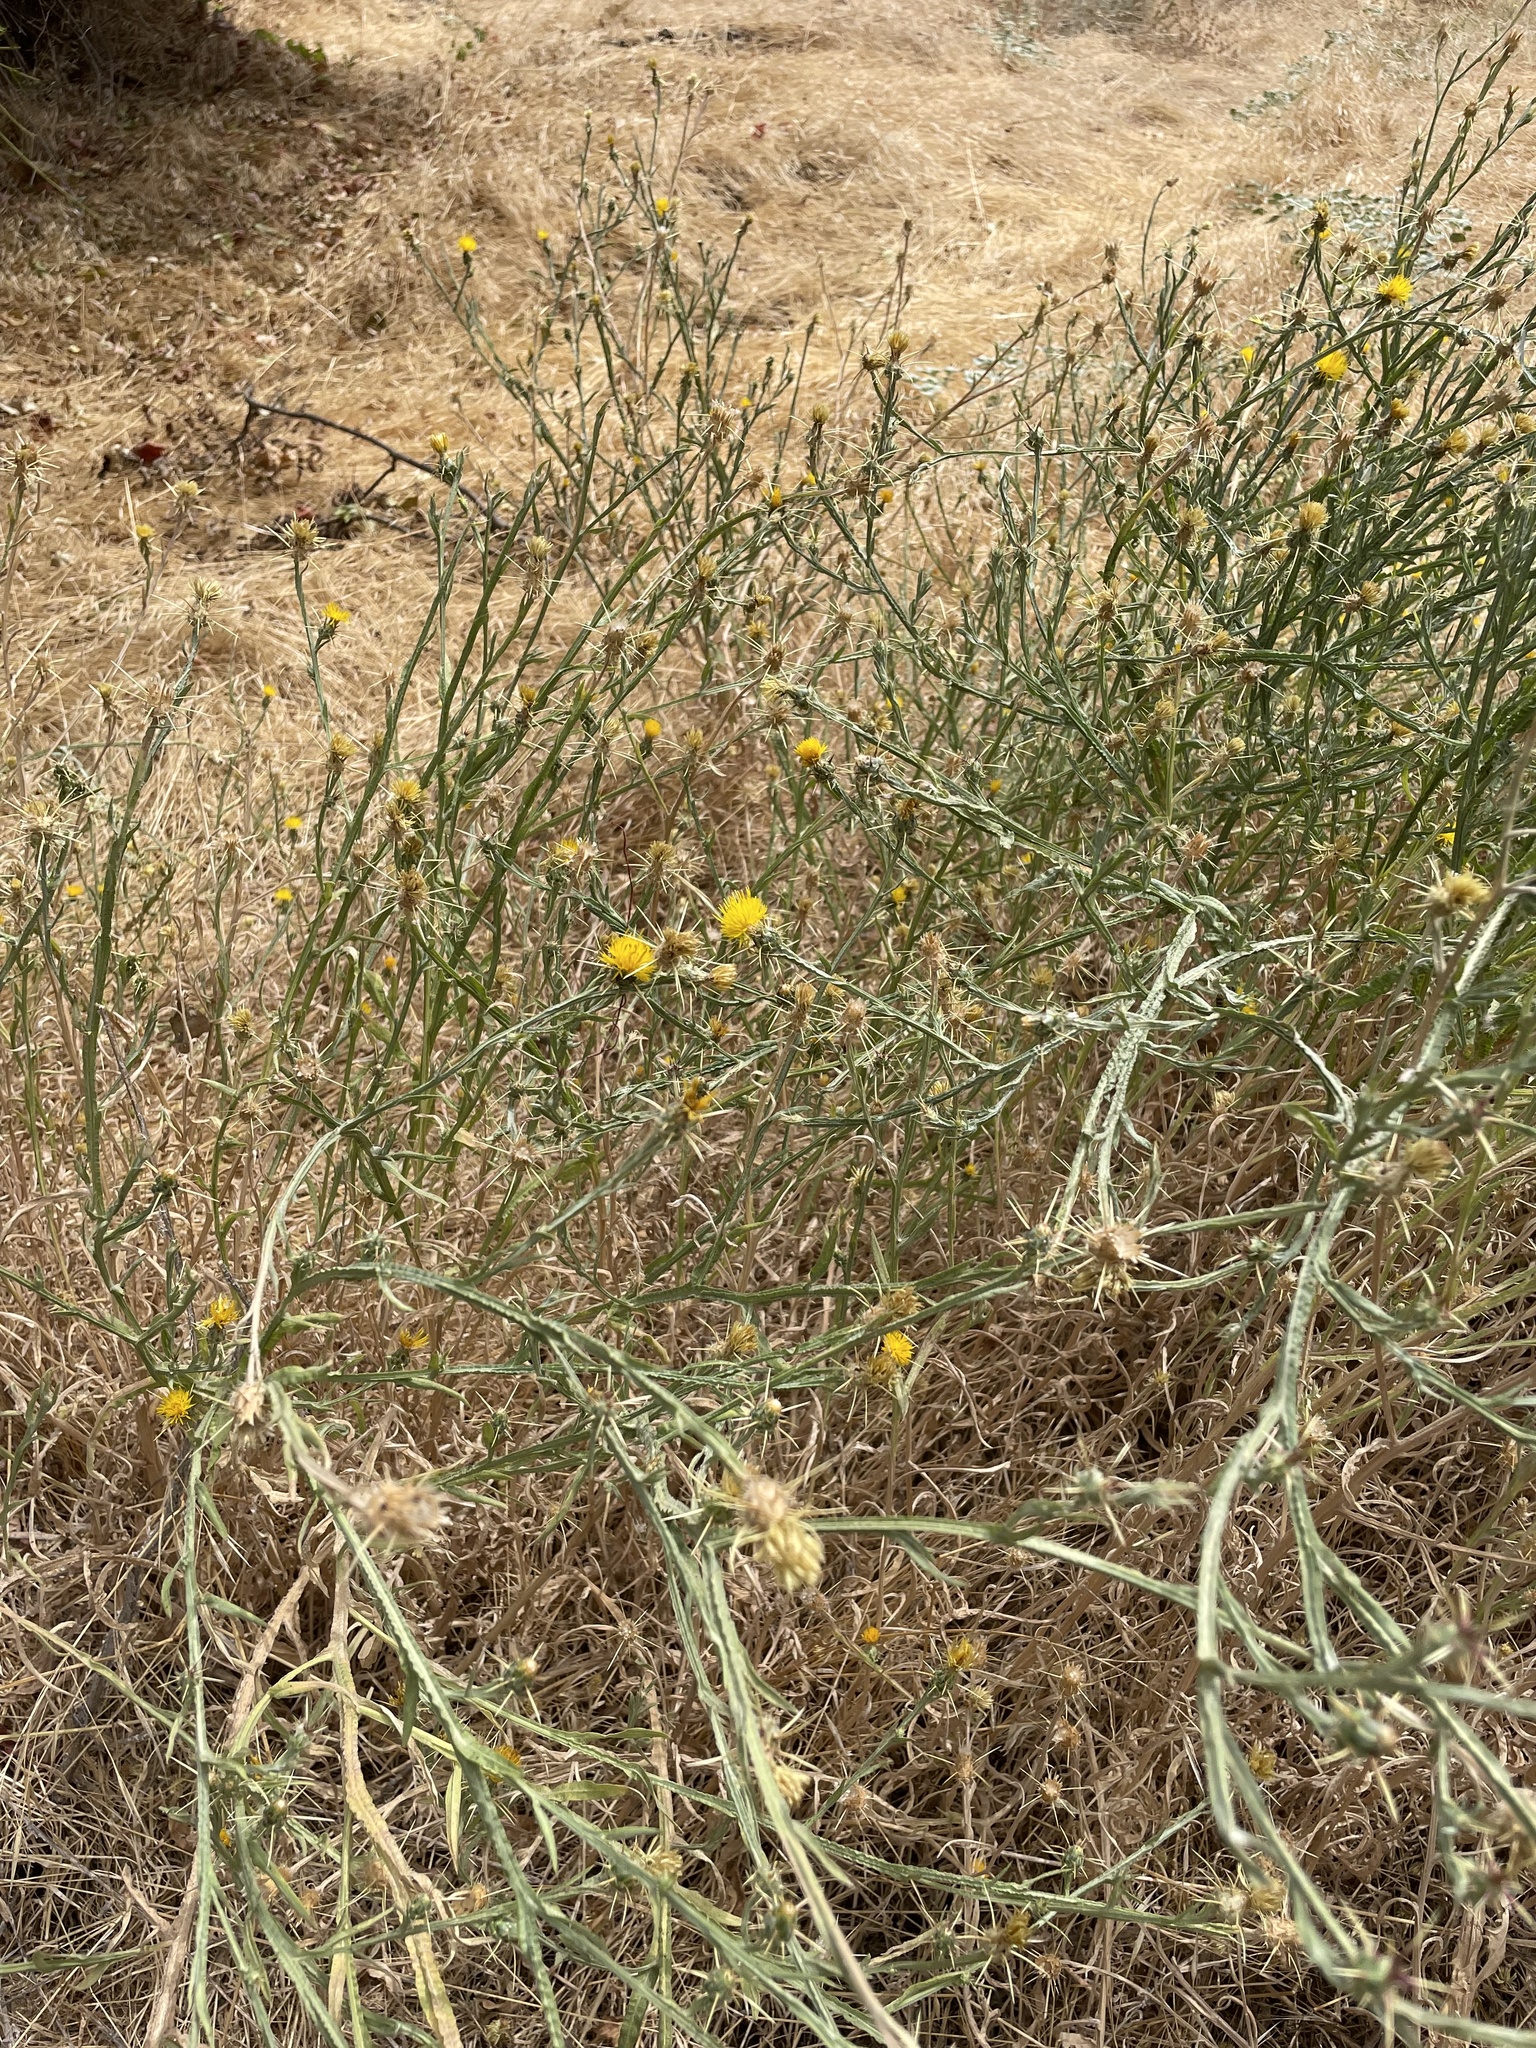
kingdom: Plantae
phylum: Tracheophyta
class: Magnoliopsida
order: Asterales
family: Asteraceae
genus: Centaurea
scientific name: Centaurea solstitialis
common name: Yellow star-thistle
